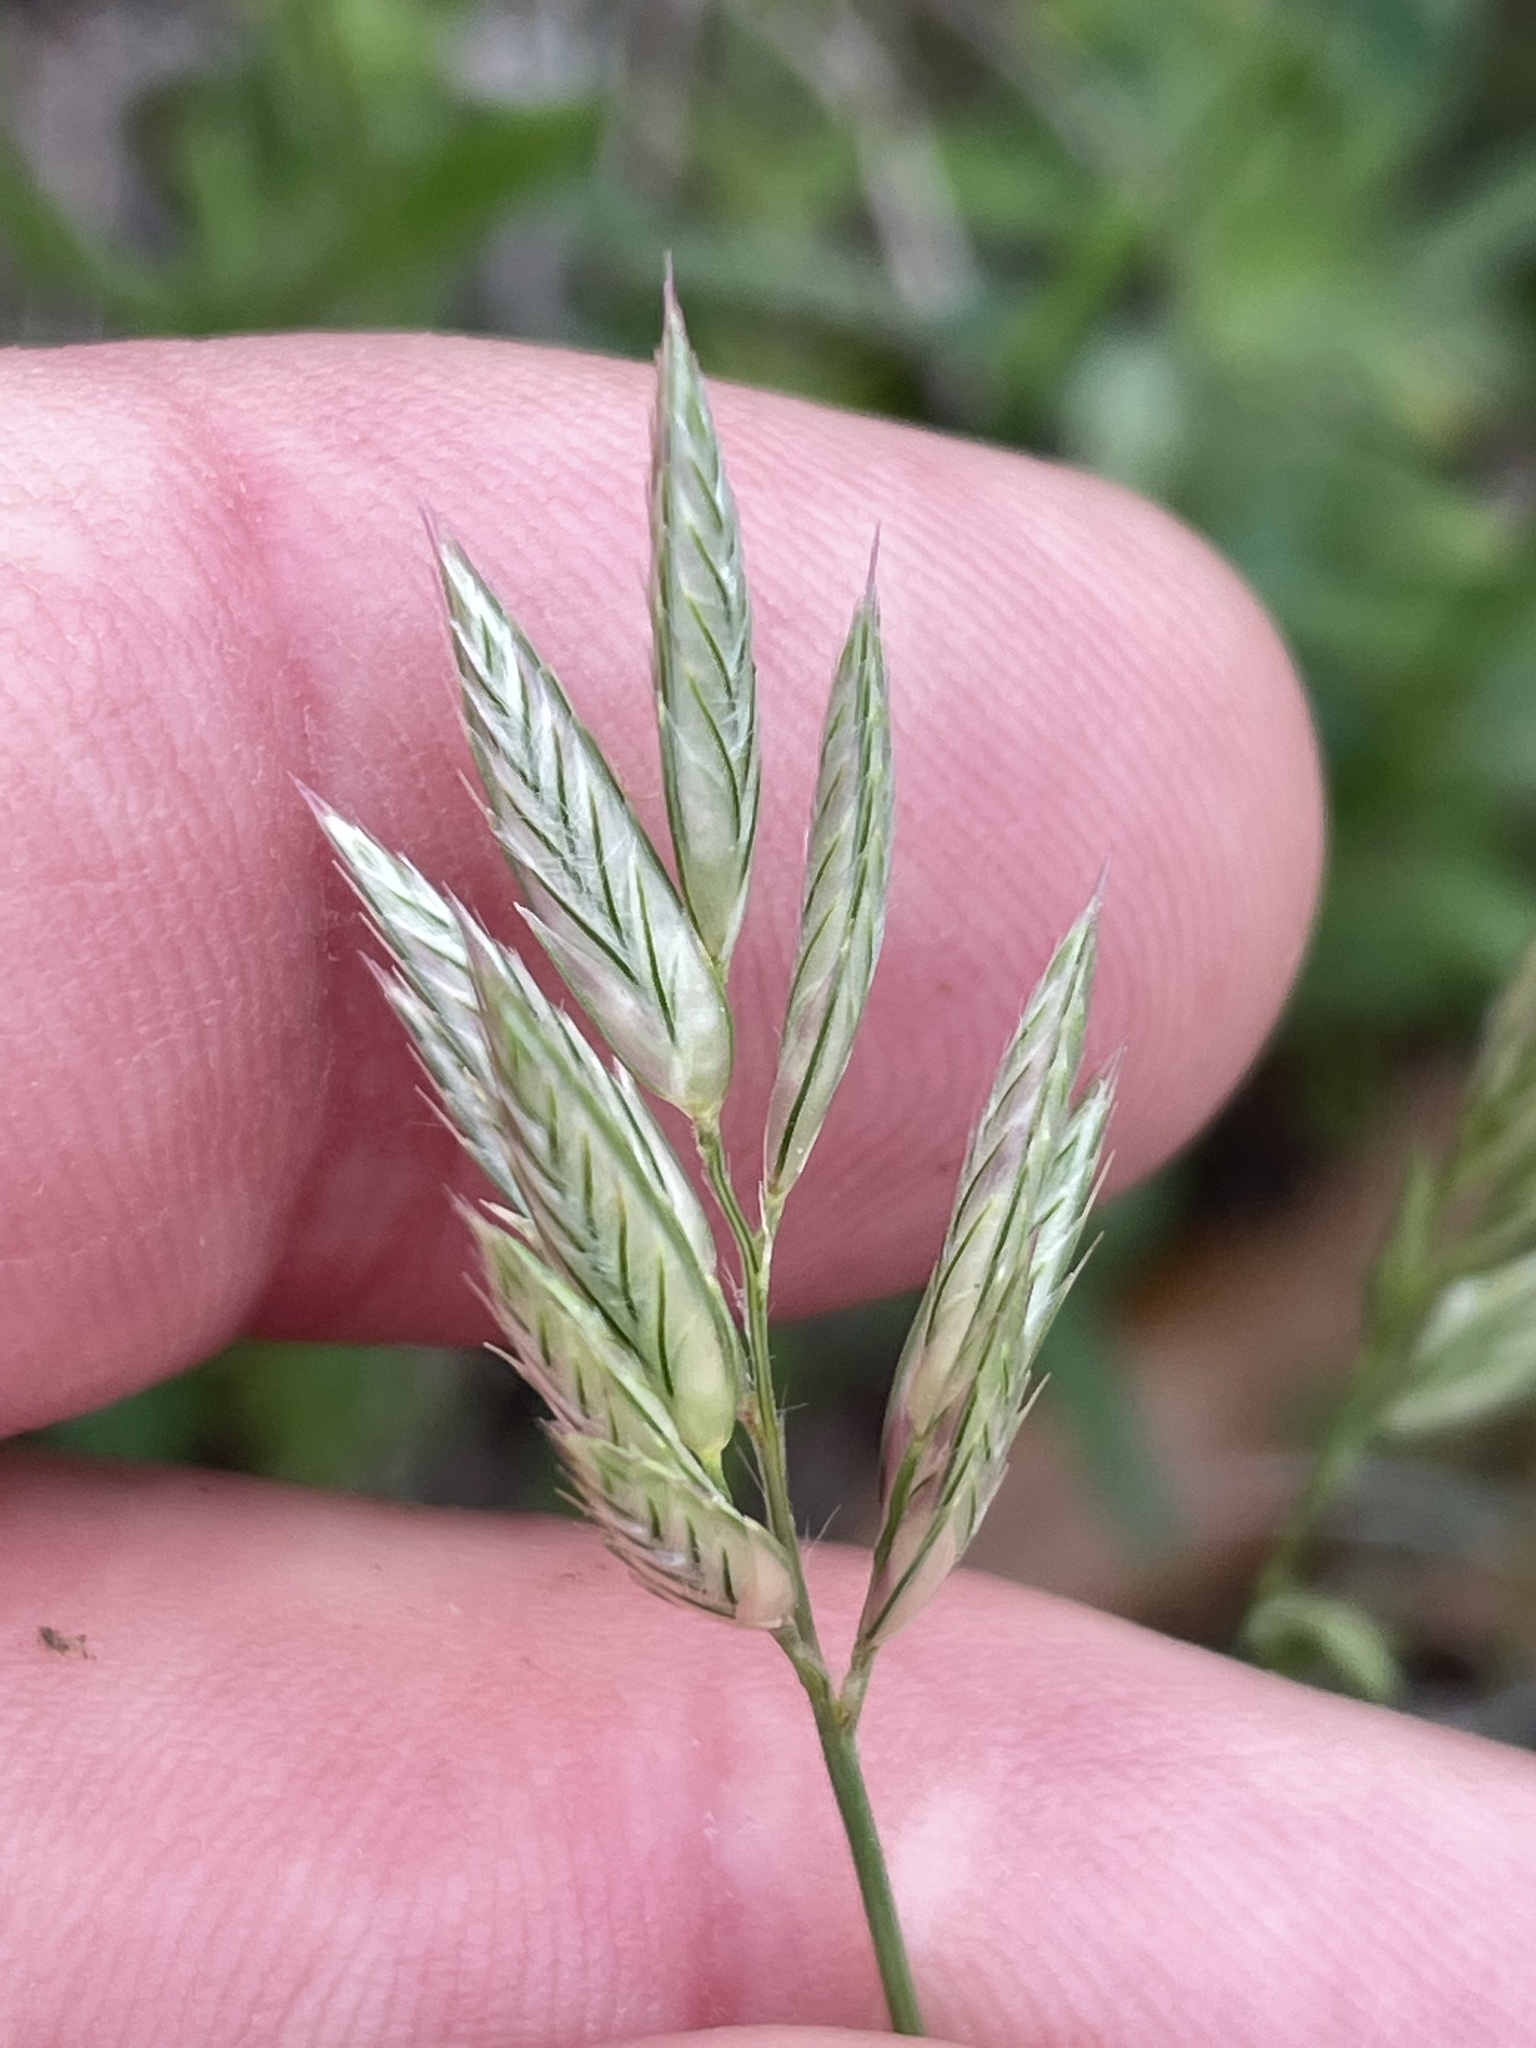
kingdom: Plantae
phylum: Tracheophyta
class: Liliopsida
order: Poales
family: Poaceae
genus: Erioneuron
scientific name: Erioneuron pilosum
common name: Hairy woolly grass
